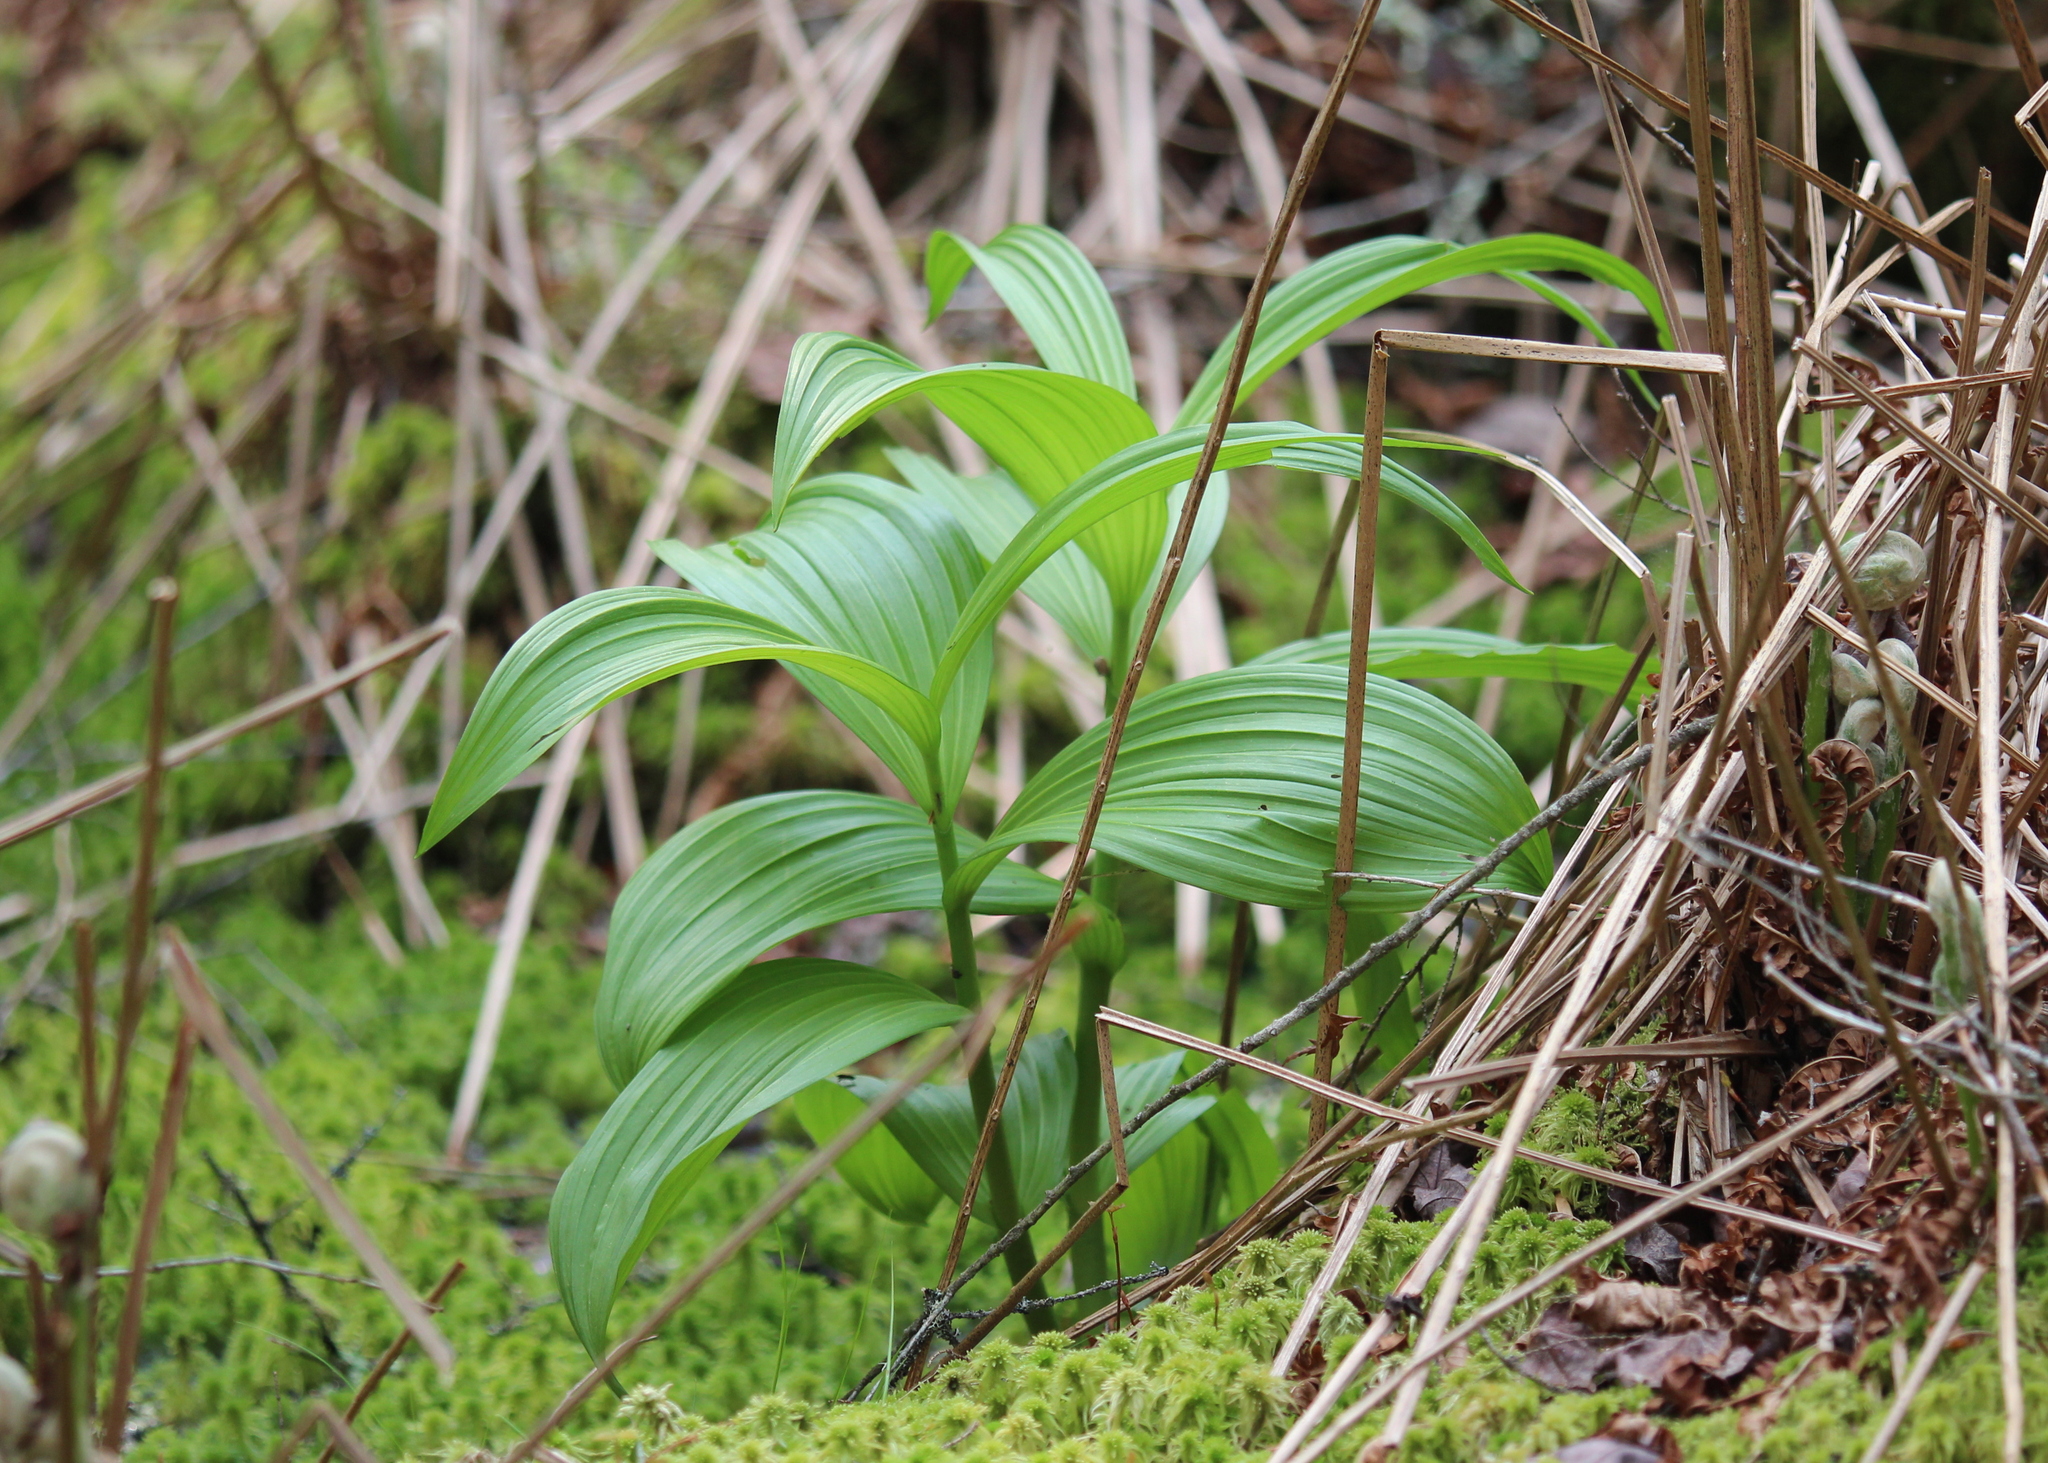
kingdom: Plantae
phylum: Tracheophyta
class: Liliopsida
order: Liliales
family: Melanthiaceae
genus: Veratrum
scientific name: Veratrum viride
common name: American false hellebore
